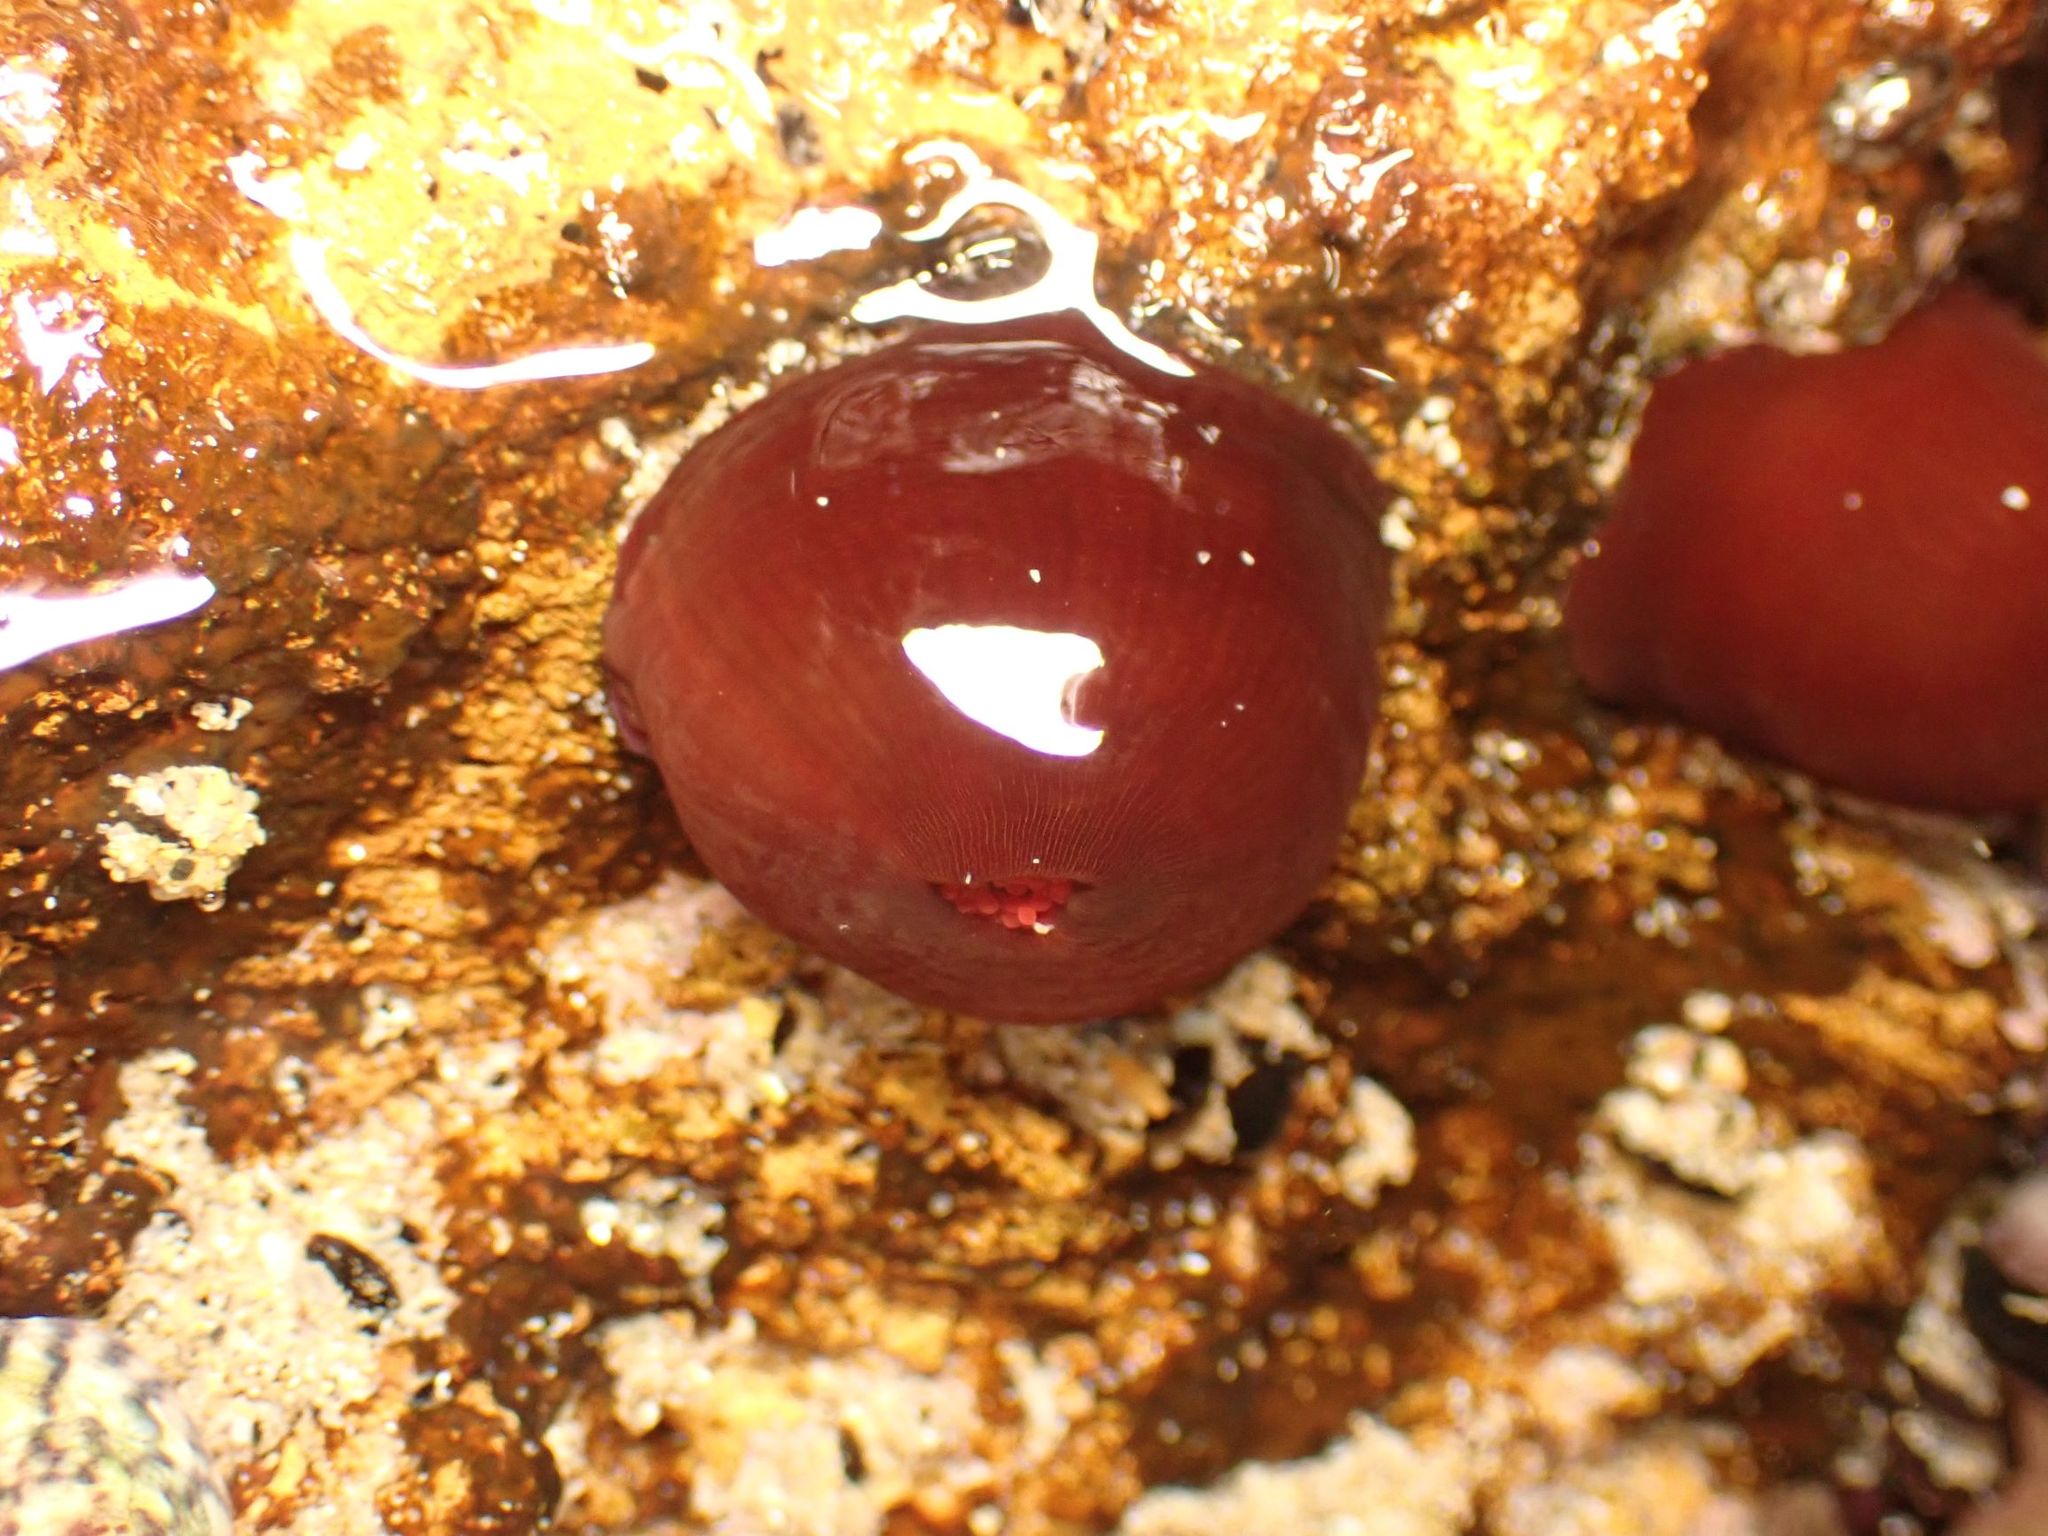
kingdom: Animalia
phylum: Cnidaria
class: Anthozoa
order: Actiniaria
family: Actiniidae
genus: Actinia
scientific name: Actinia tenebrosa
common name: Waratah anemone
